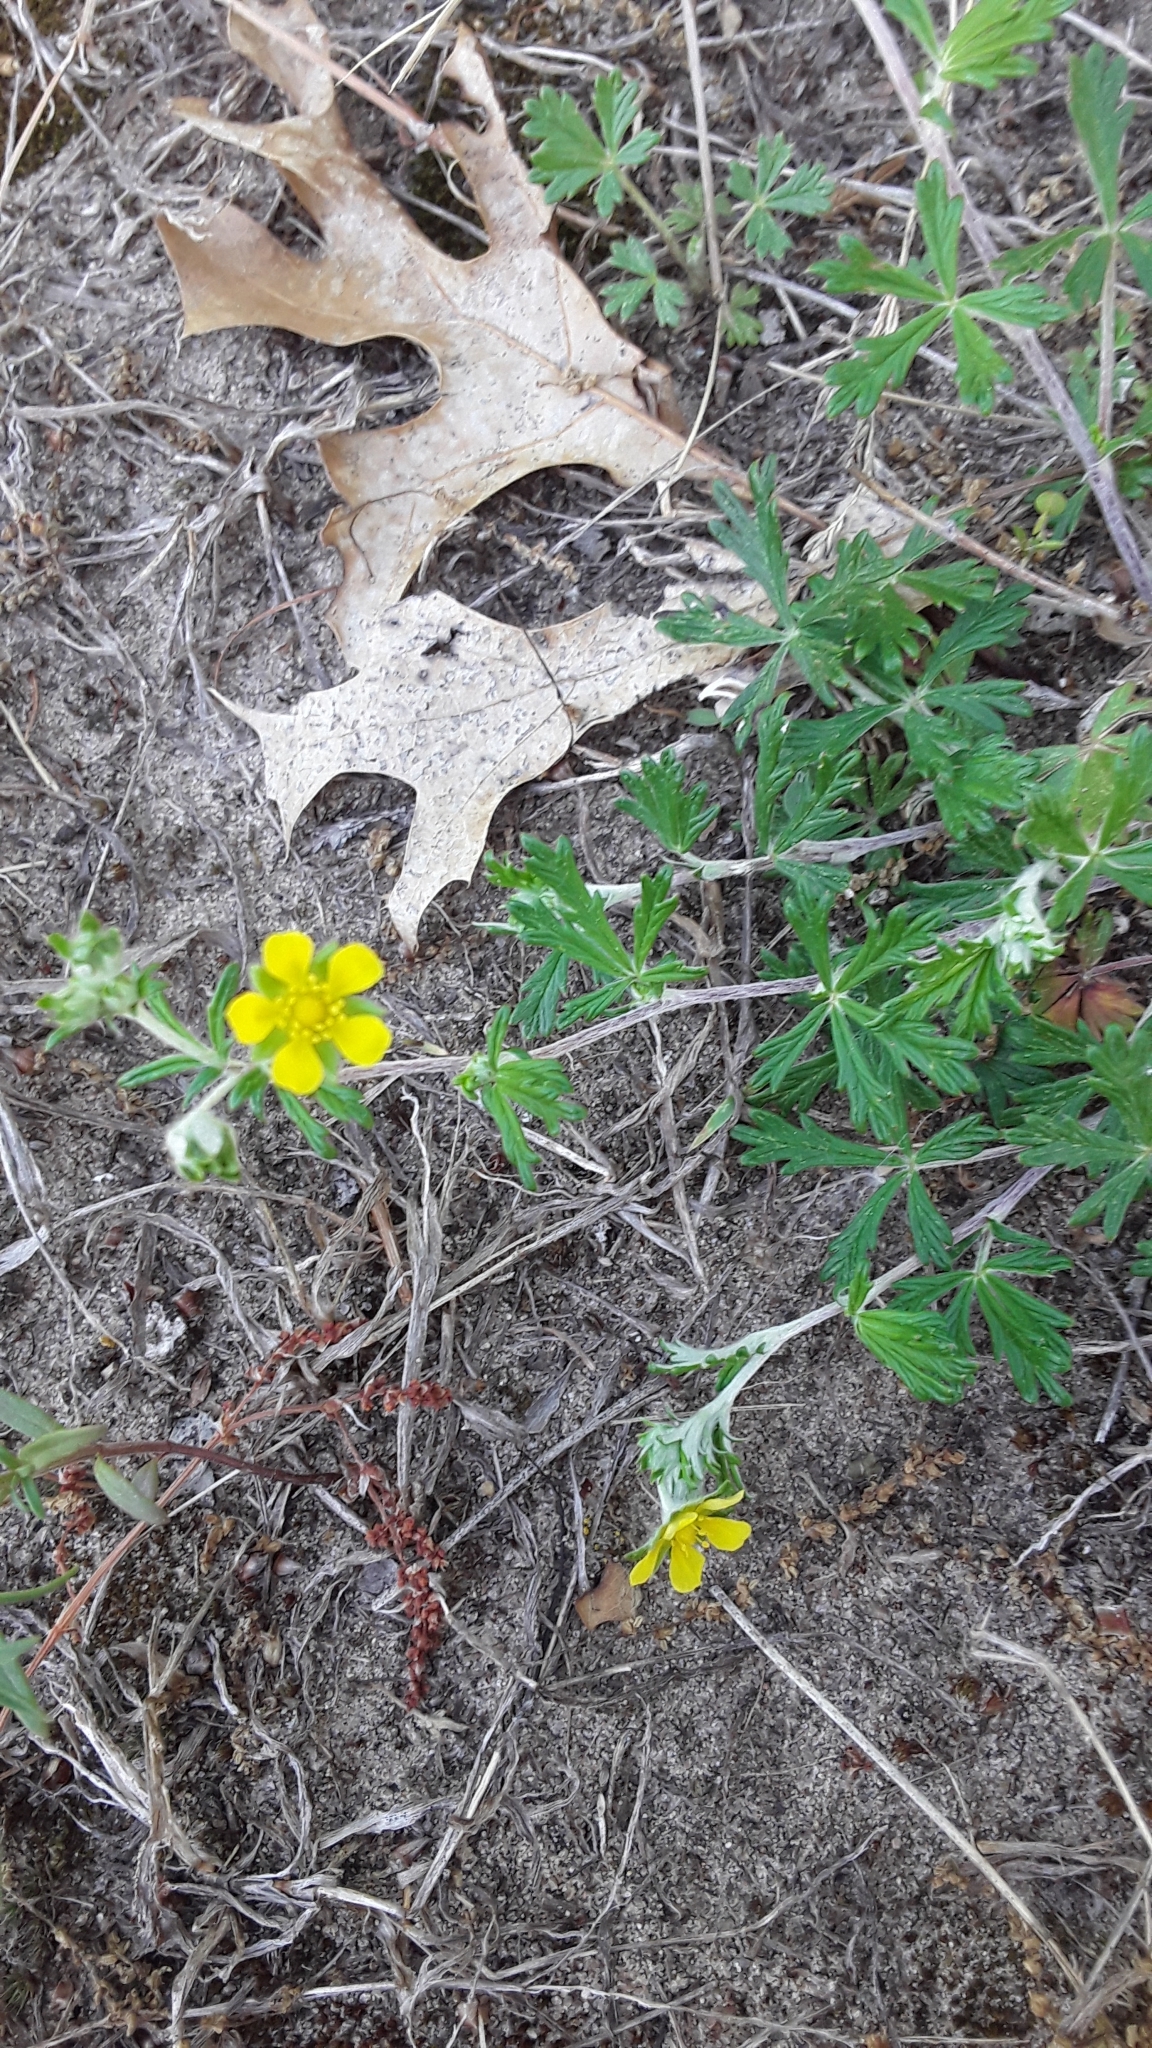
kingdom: Plantae
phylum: Tracheophyta
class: Magnoliopsida
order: Rosales
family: Rosaceae
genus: Potentilla
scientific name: Potentilla argentea
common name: Hoary cinquefoil
